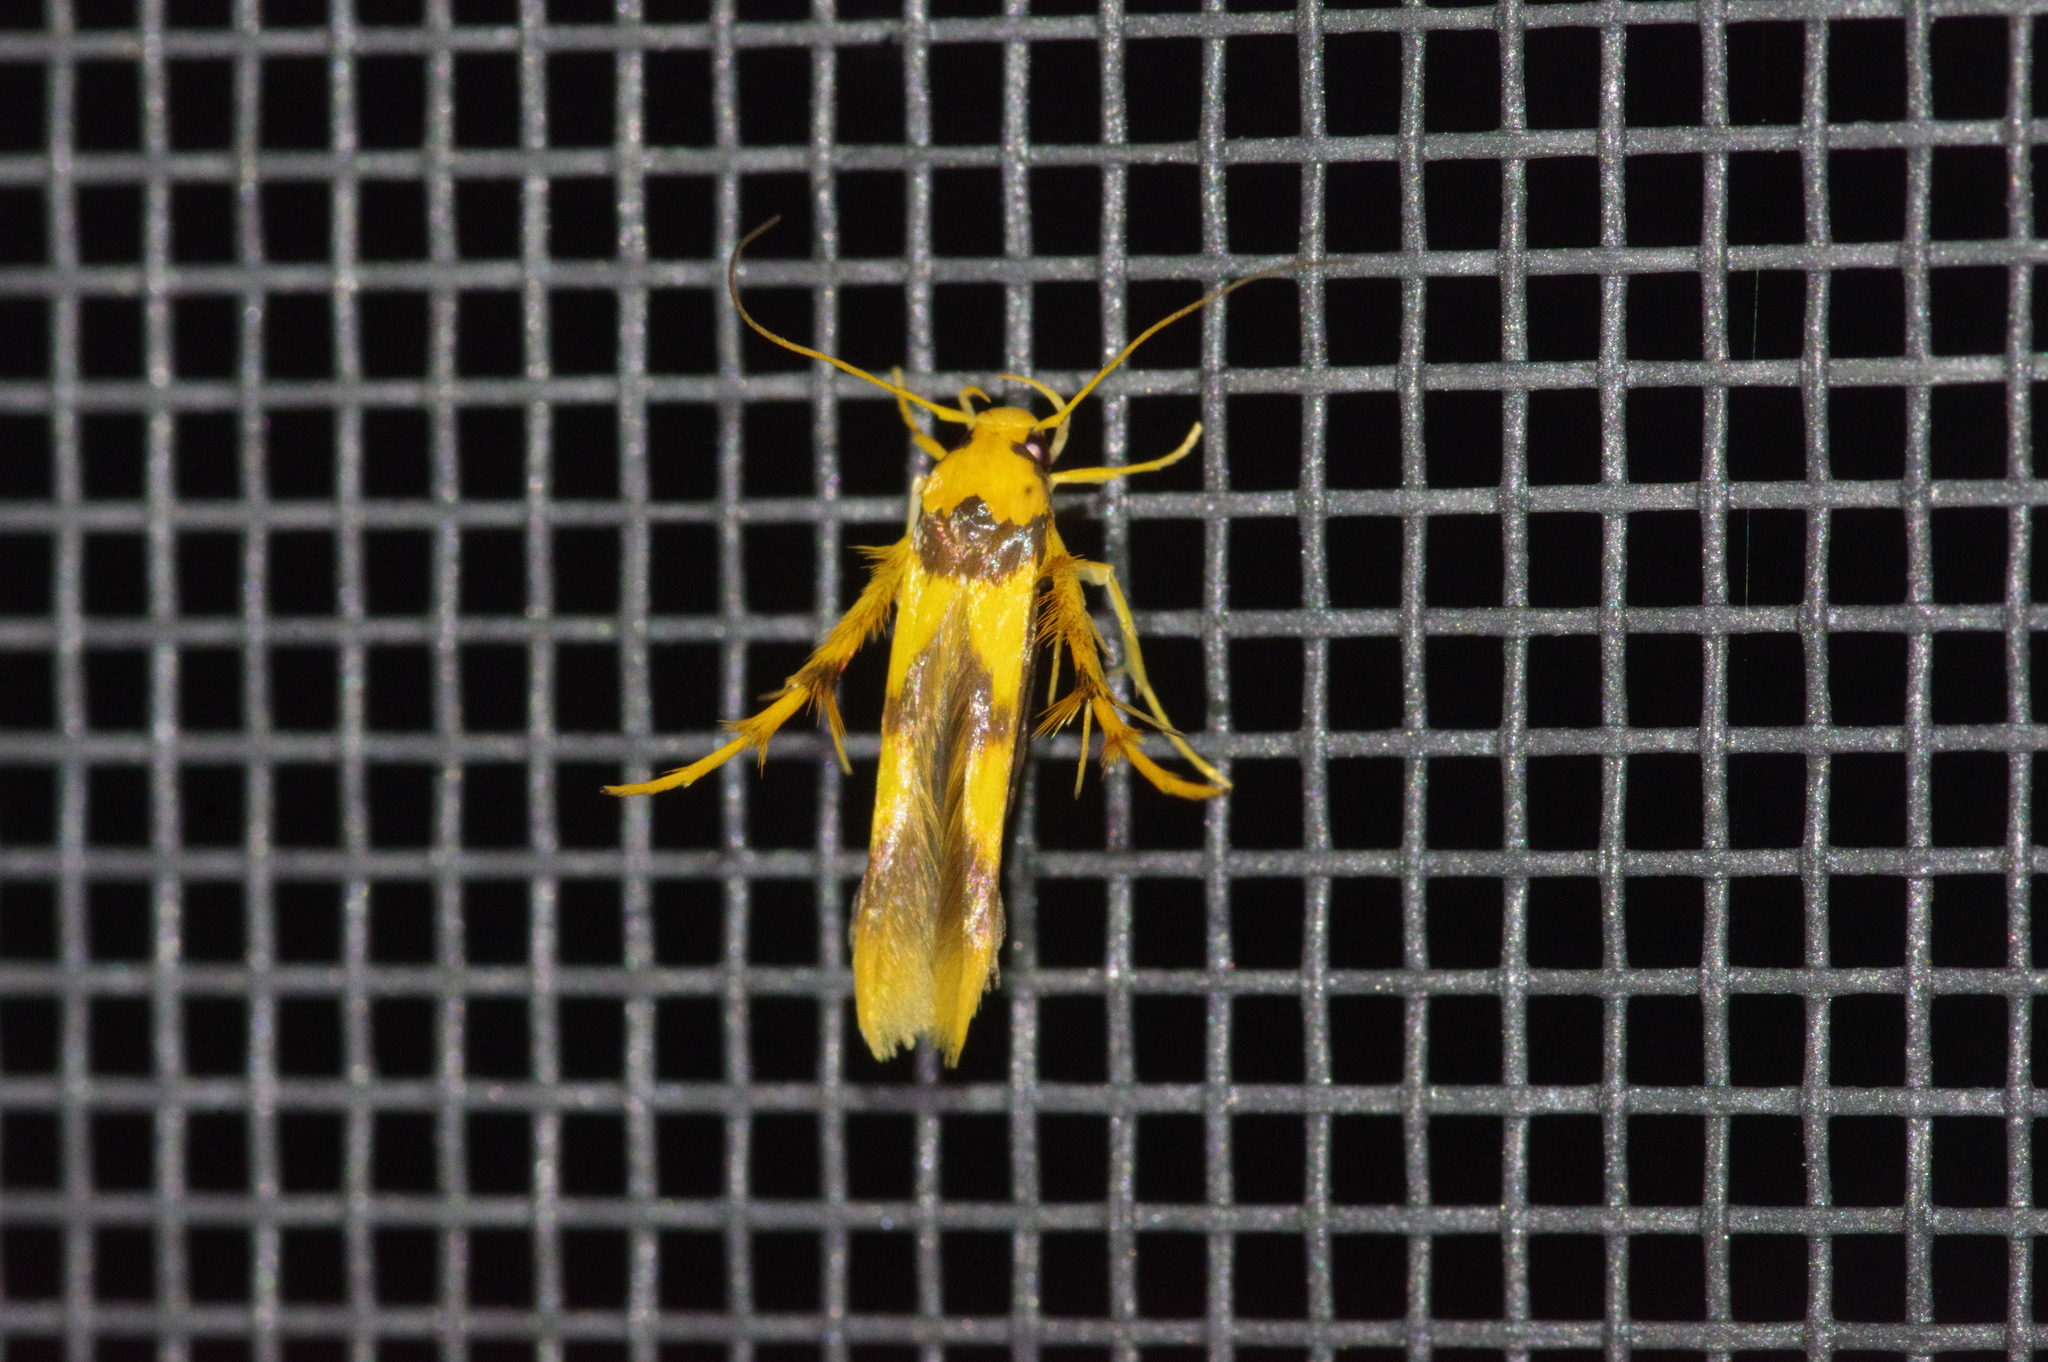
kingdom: Animalia
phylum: Arthropoda
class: Insecta
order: Lepidoptera
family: Stathmopodidae
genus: Stathmopoda
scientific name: Stathmopoda fusciumeraris
